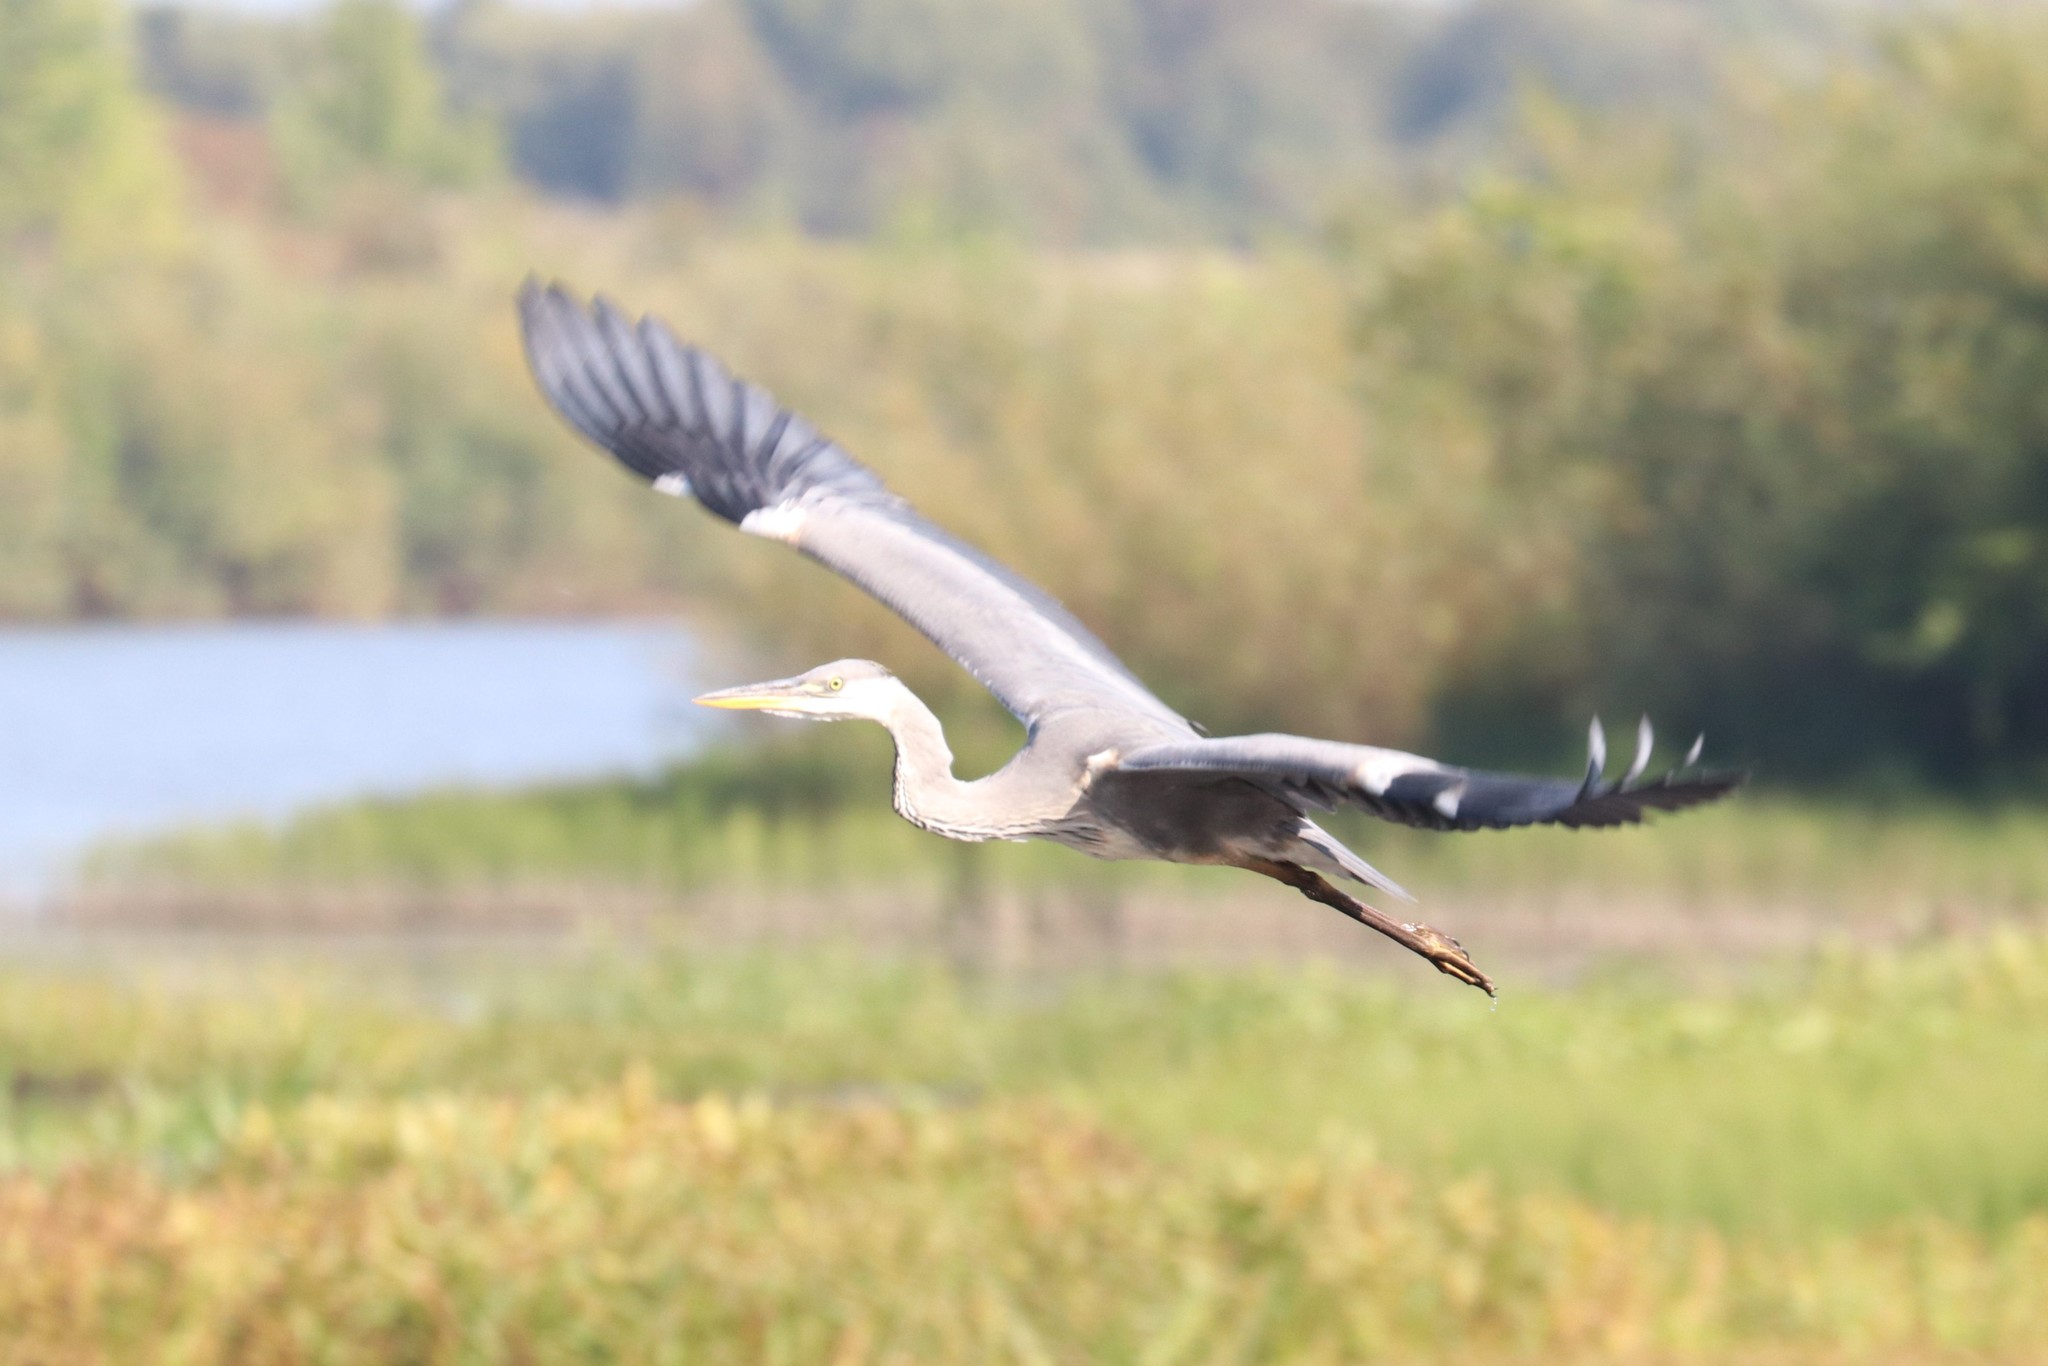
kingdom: Animalia
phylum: Chordata
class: Aves
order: Pelecaniformes
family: Ardeidae
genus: Ardea
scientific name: Ardea cinerea
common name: Grey heron
